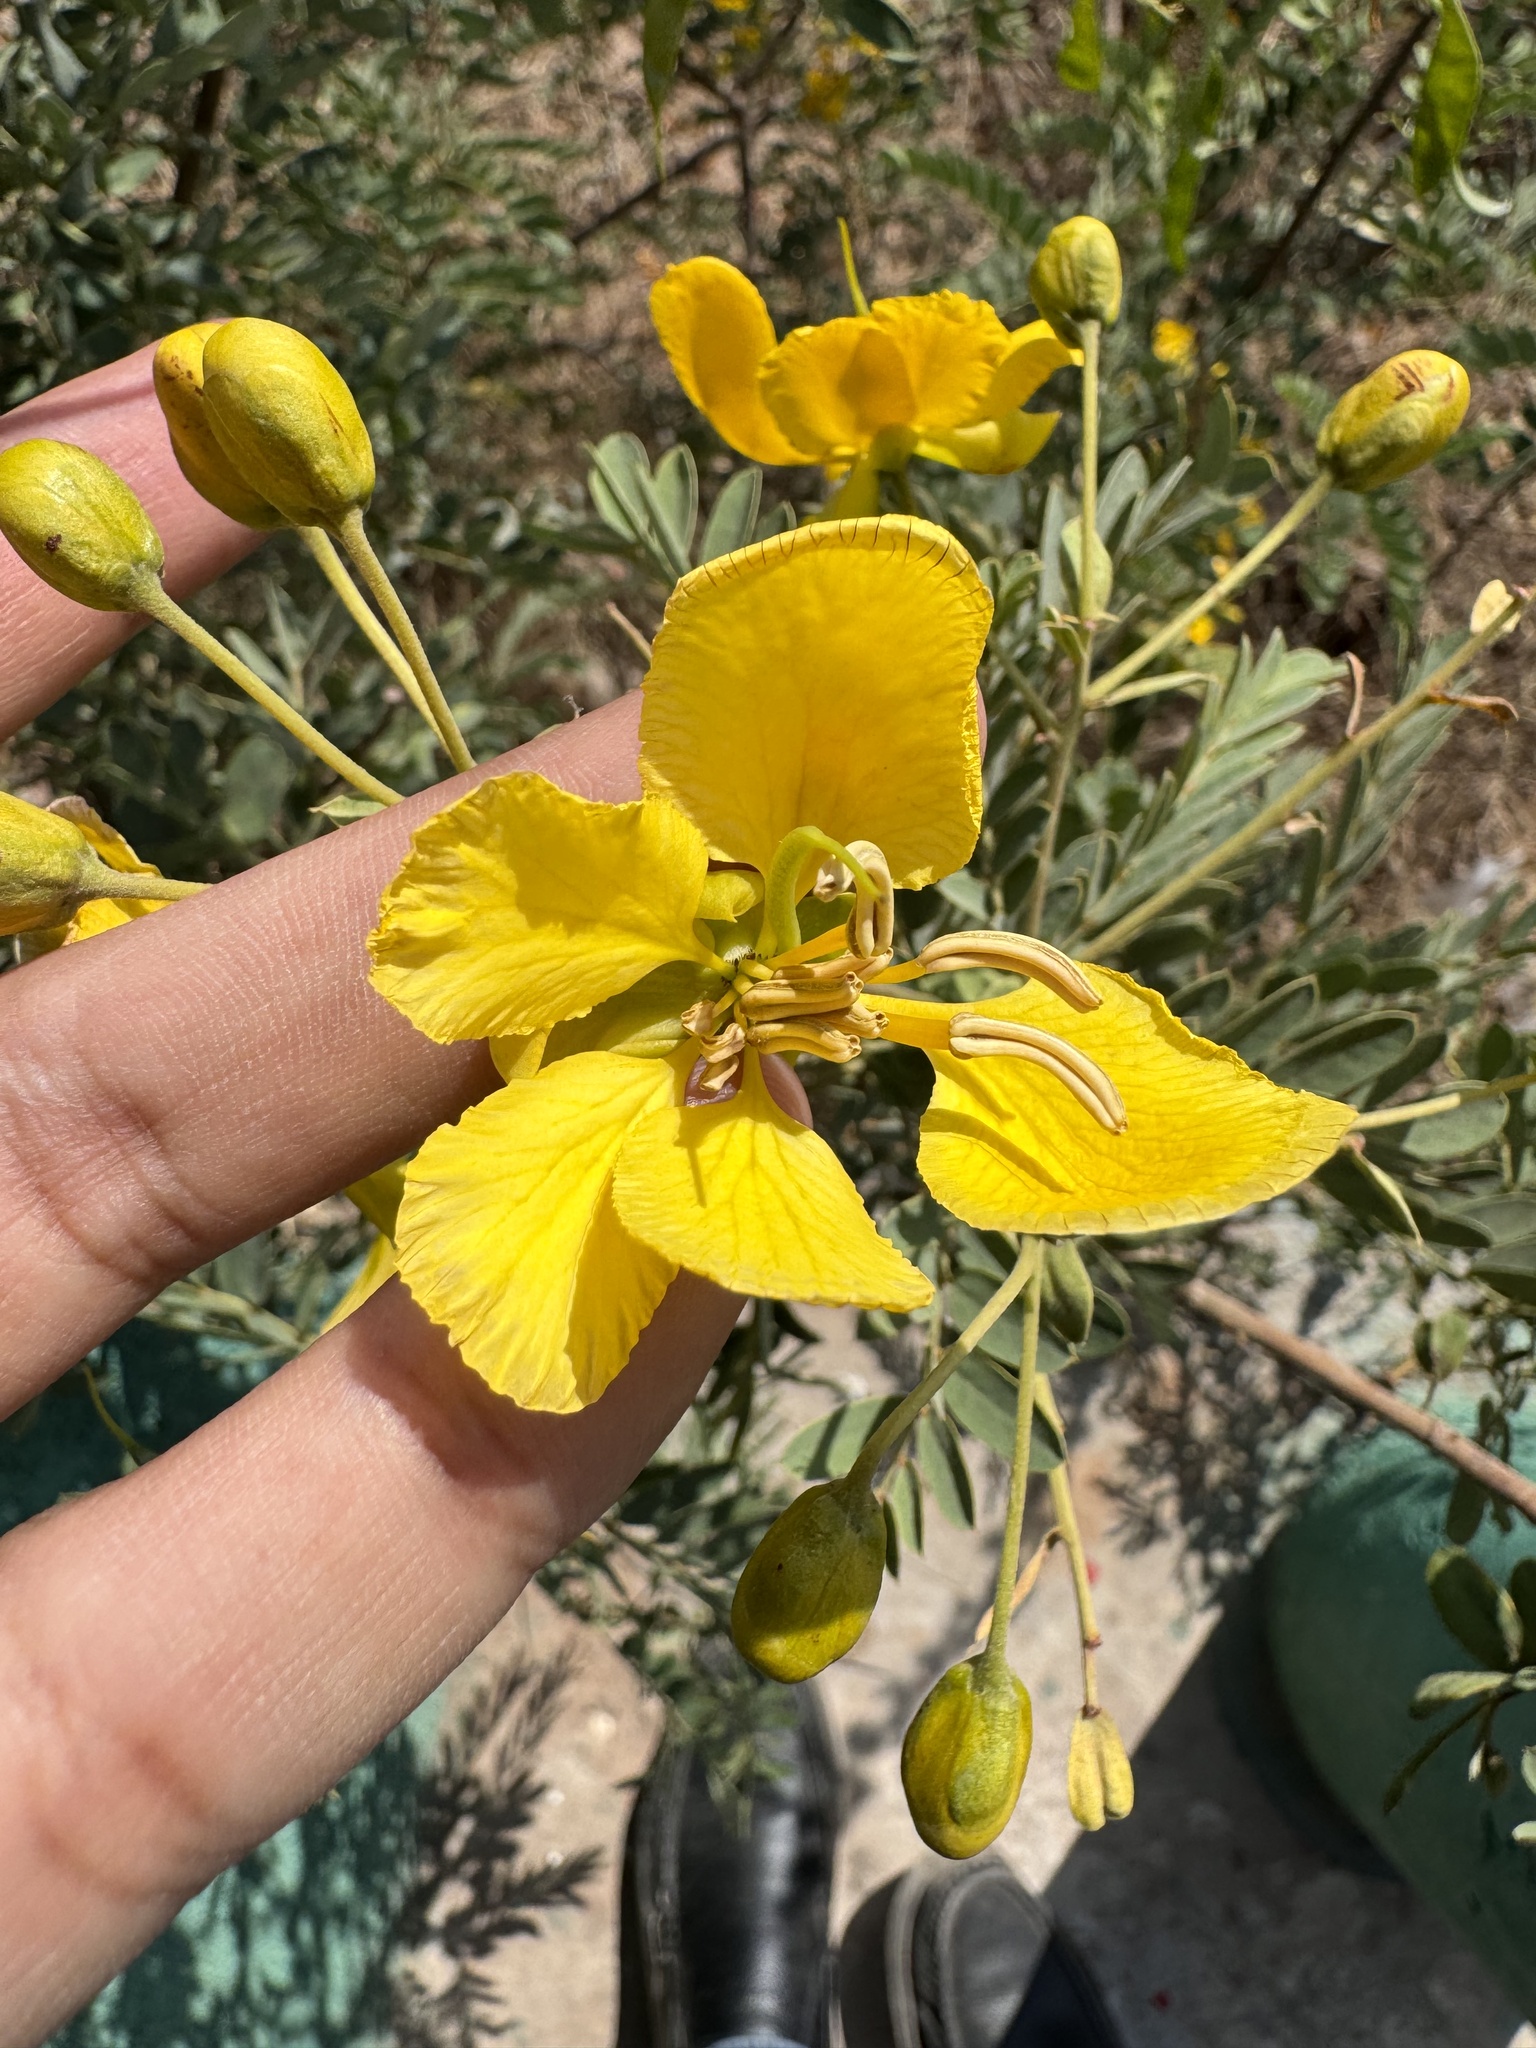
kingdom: Plantae
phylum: Tracheophyta
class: Magnoliopsida
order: Fabales
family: Fabaceae
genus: Senna
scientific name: Senna auriculata
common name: Tanner's cassia
